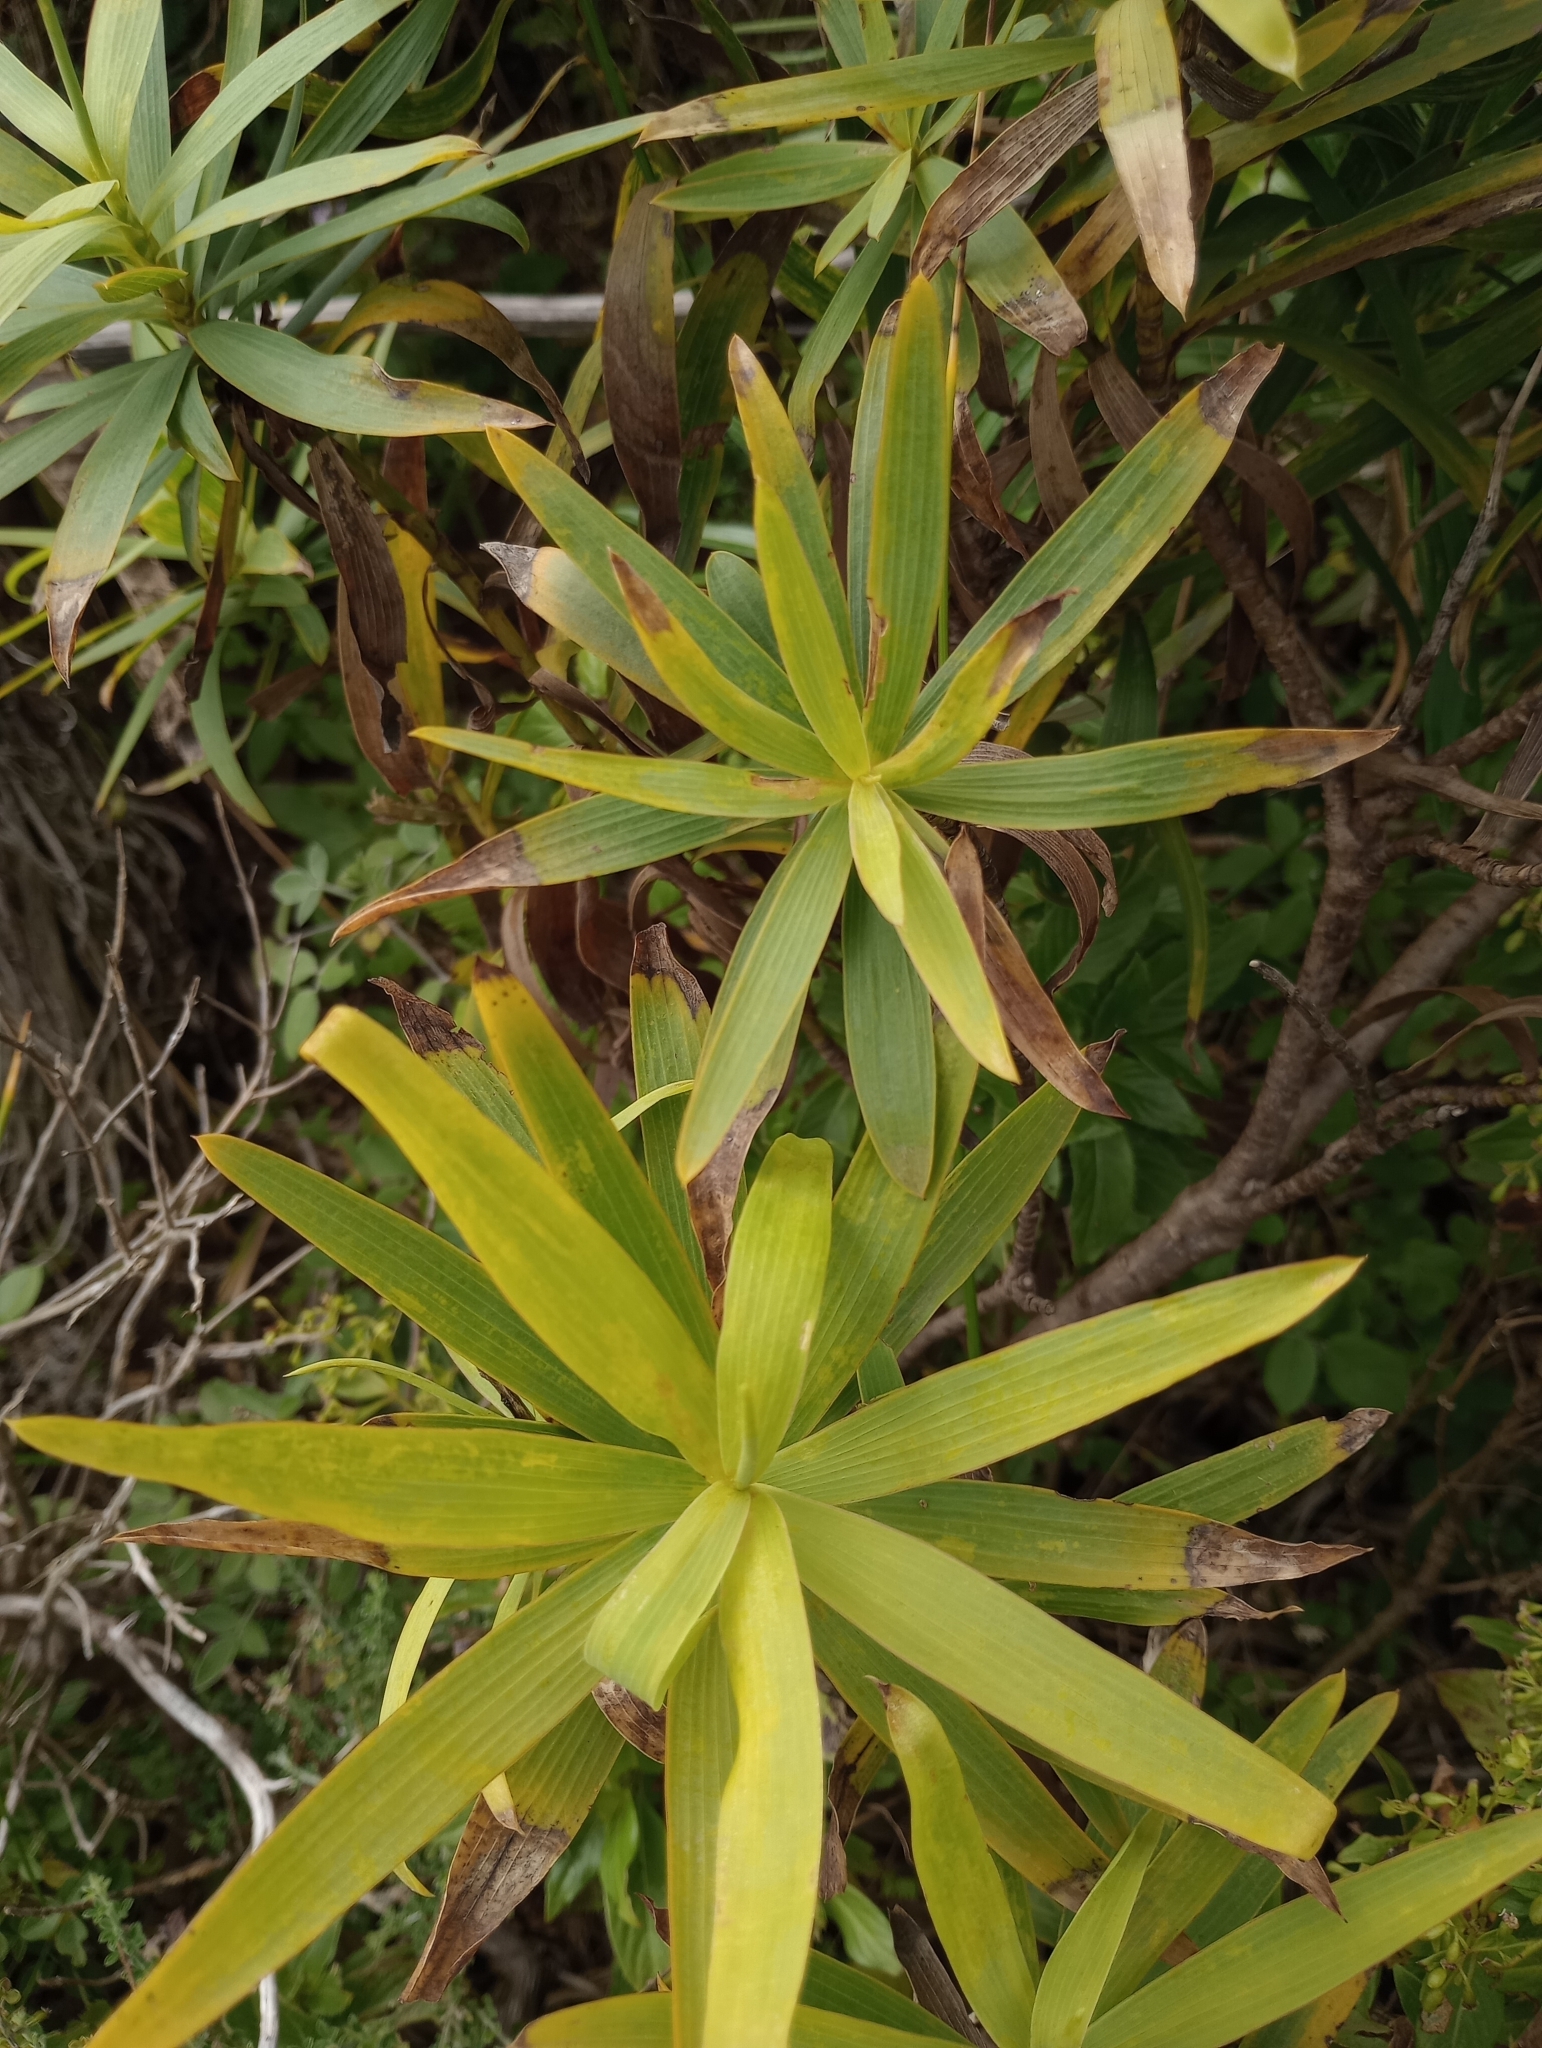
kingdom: Plantae
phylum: Tracheophyta
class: Magnoliopsida
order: Apiales
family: Apiaceae
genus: Bupleurum
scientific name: Bupleurum salicifolium
